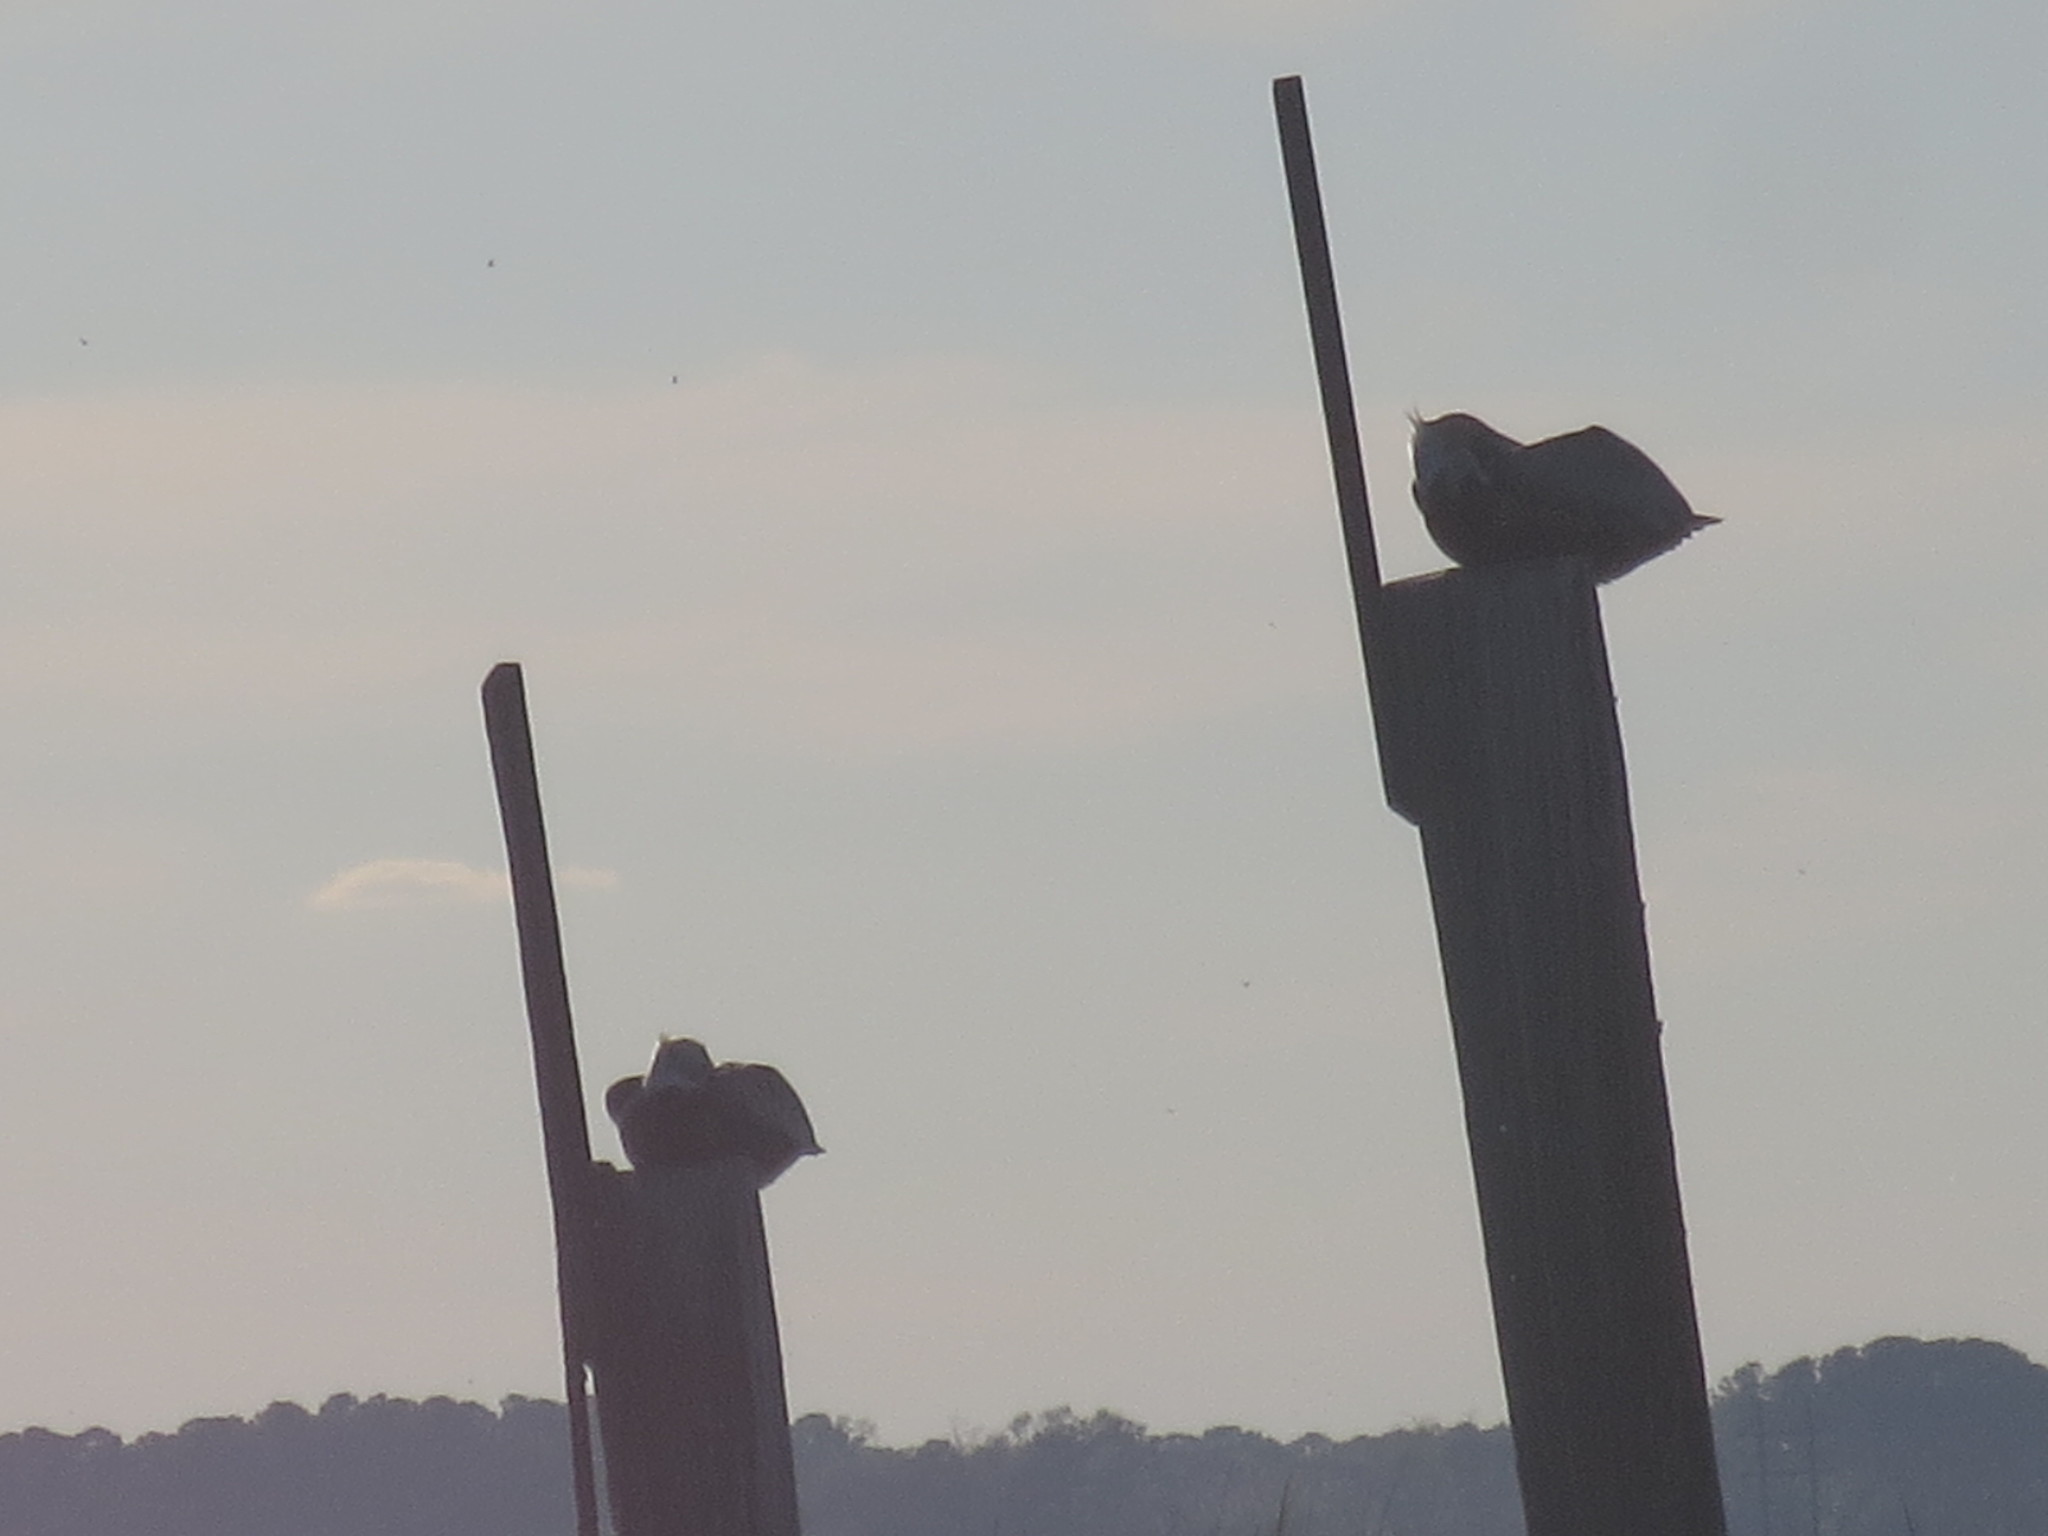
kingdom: Animalia
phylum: Chordata
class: Aves
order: Pelecaniformes
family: Pelecanidae
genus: Pelecanus
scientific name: Pelecanus occidentalis
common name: Brown pelican
